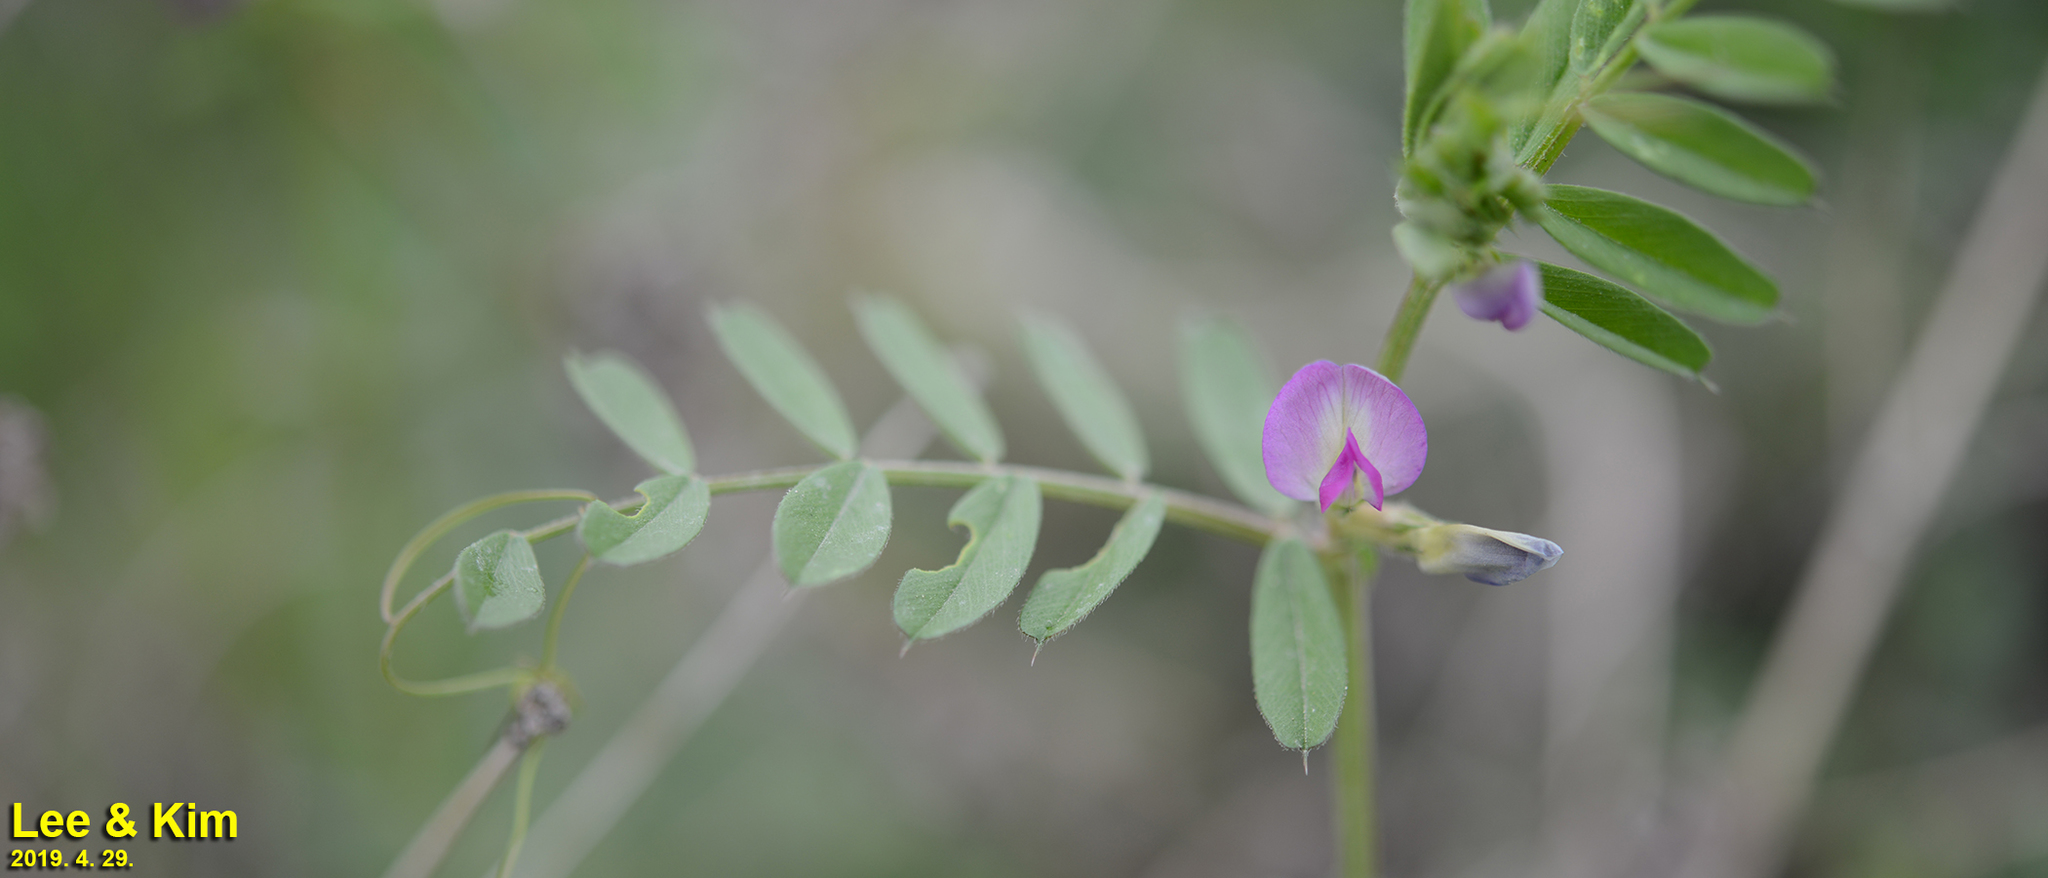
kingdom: Plantae
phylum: Tracheophyta
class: Magnoliopsida
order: Fabales
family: Fabaceae
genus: Vicia
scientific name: Vicia sativa
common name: Garden vetch
